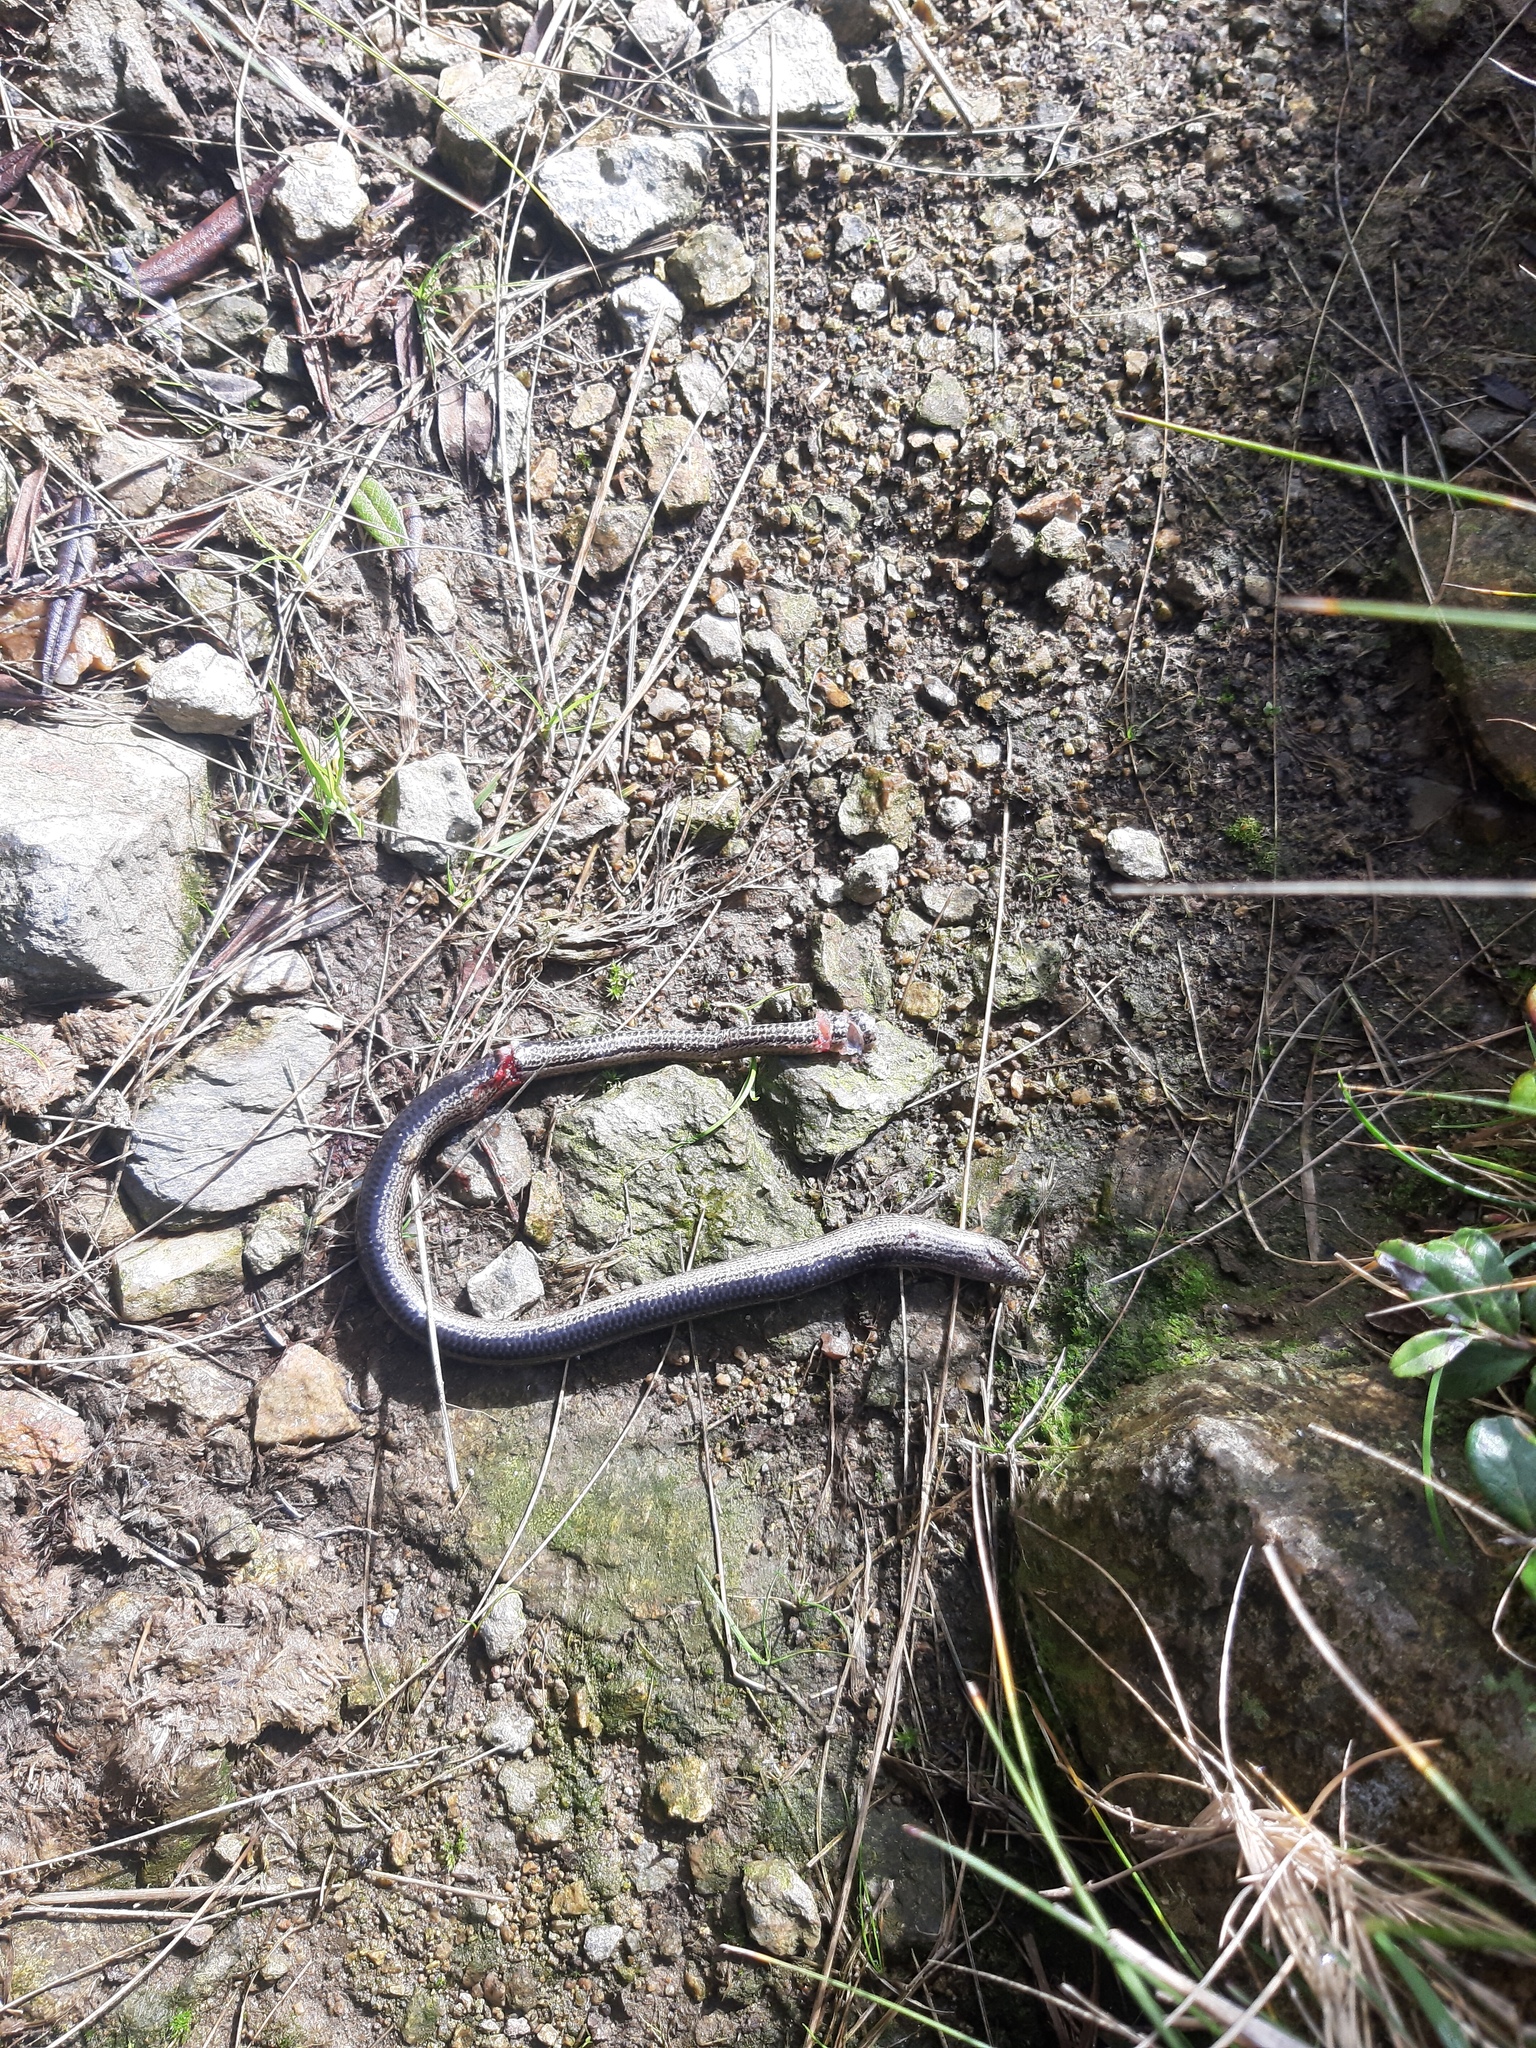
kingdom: Animalia
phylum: Chordata
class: Squamata
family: Anguidae
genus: Anguis
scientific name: Anguis veronensis
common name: Italian slow worm
